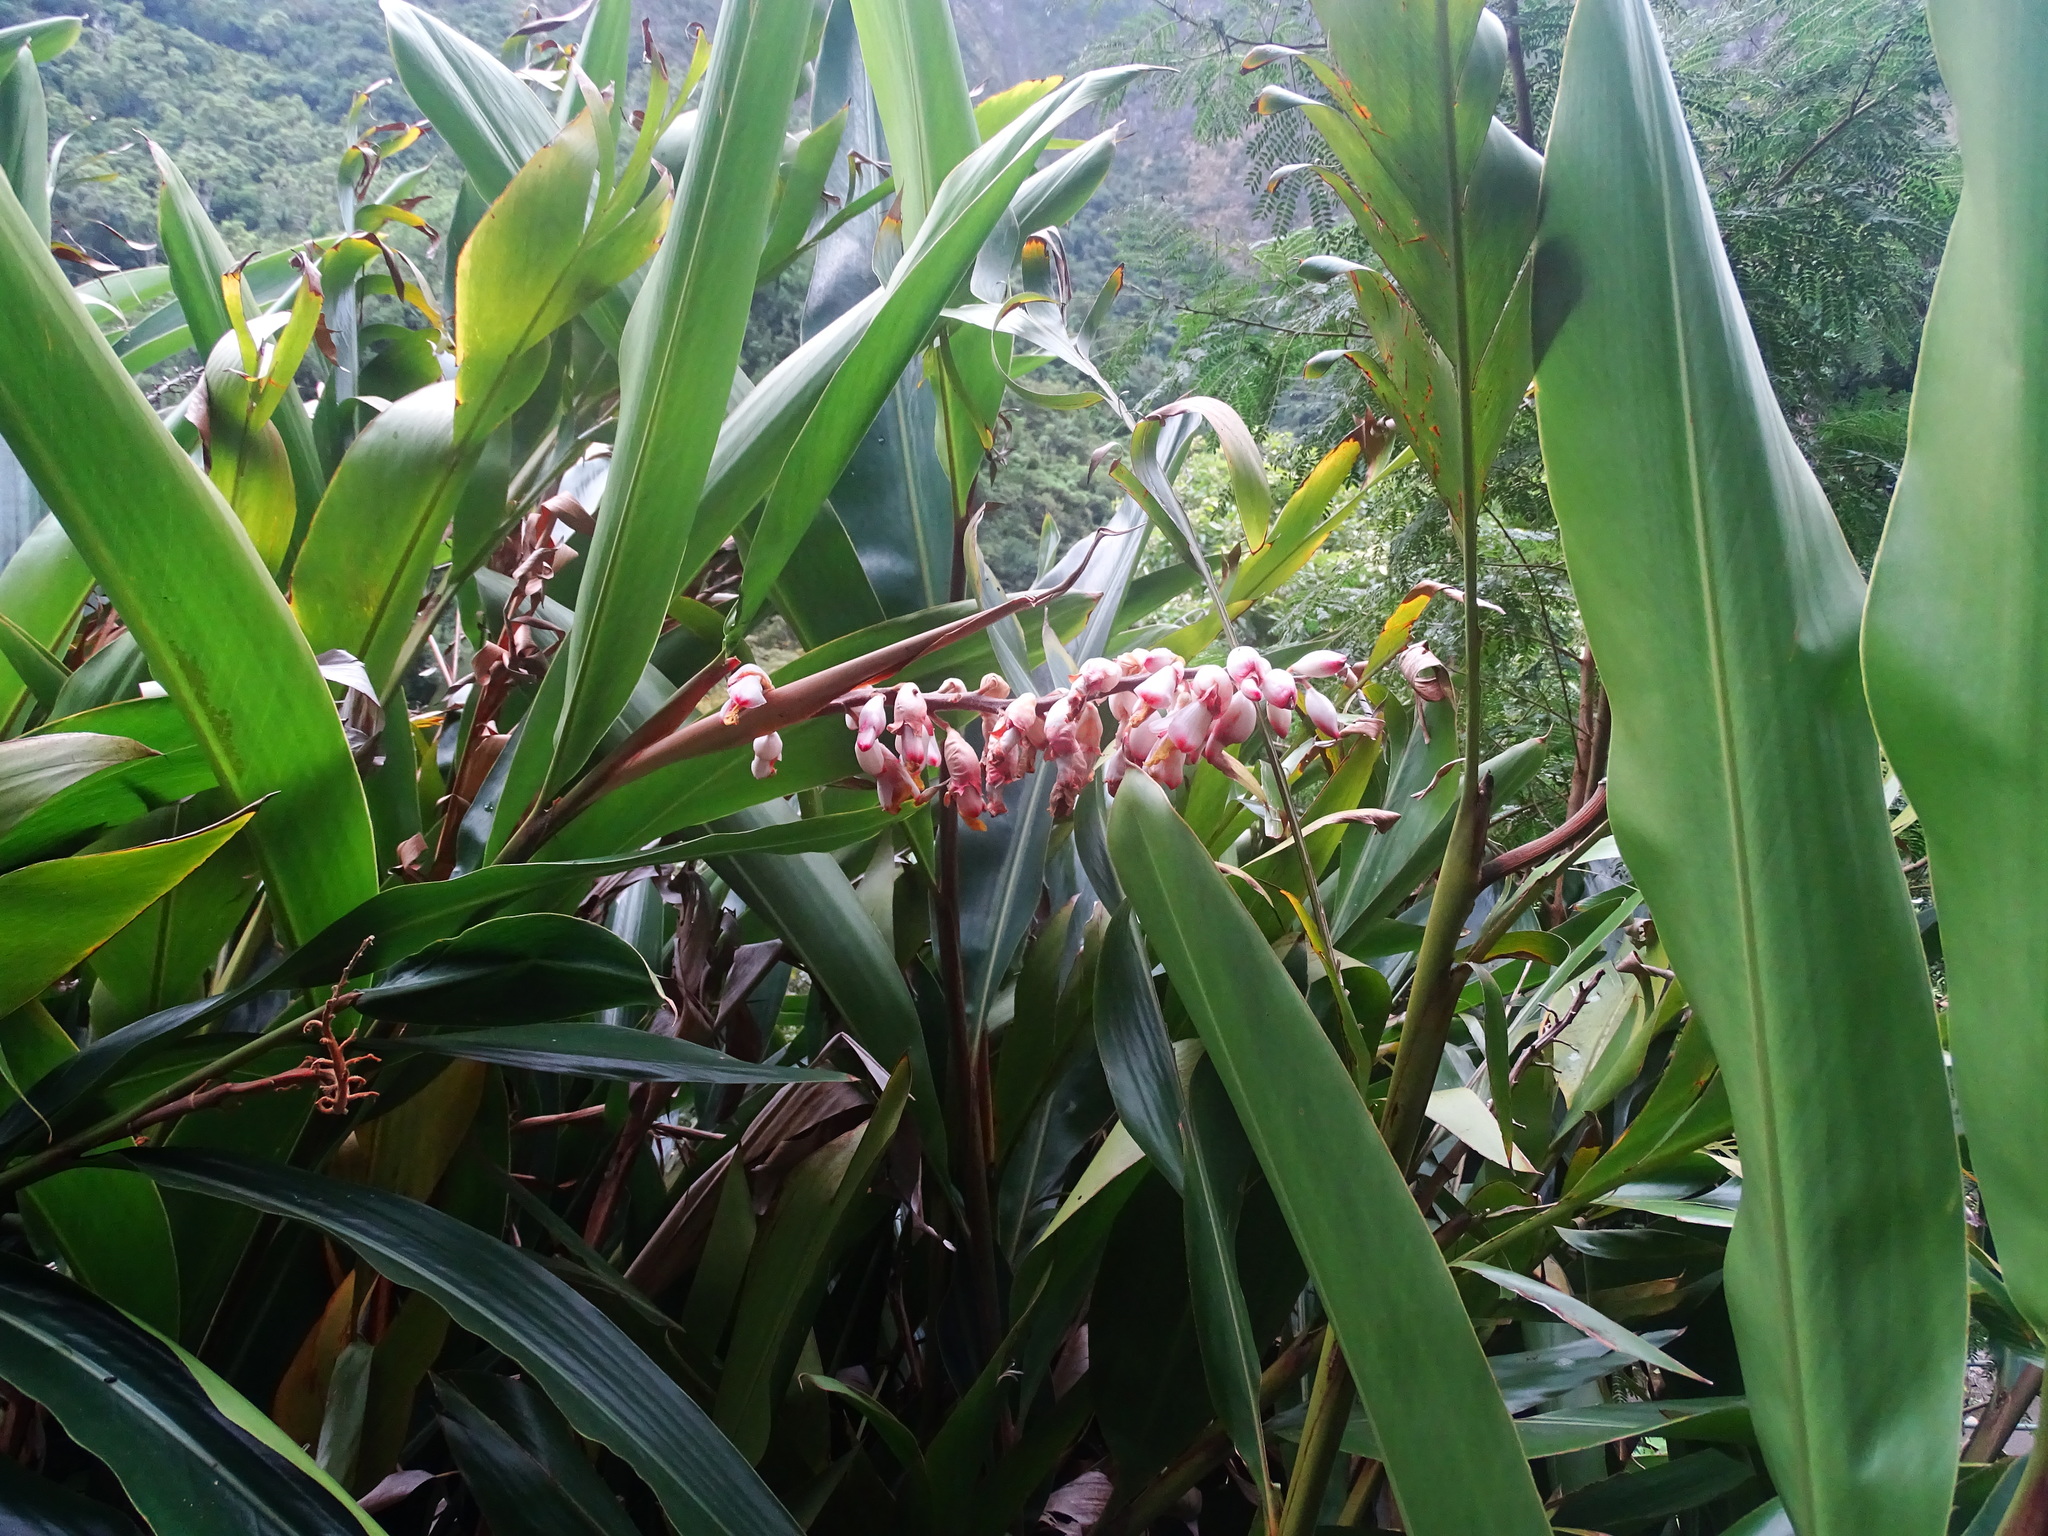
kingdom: Plantae
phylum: Tracheophyta
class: Liliopsida
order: Zingiberales
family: Zingiberaceae
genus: Alpinia
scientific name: Alpinia zerumbet
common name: Shellplant
